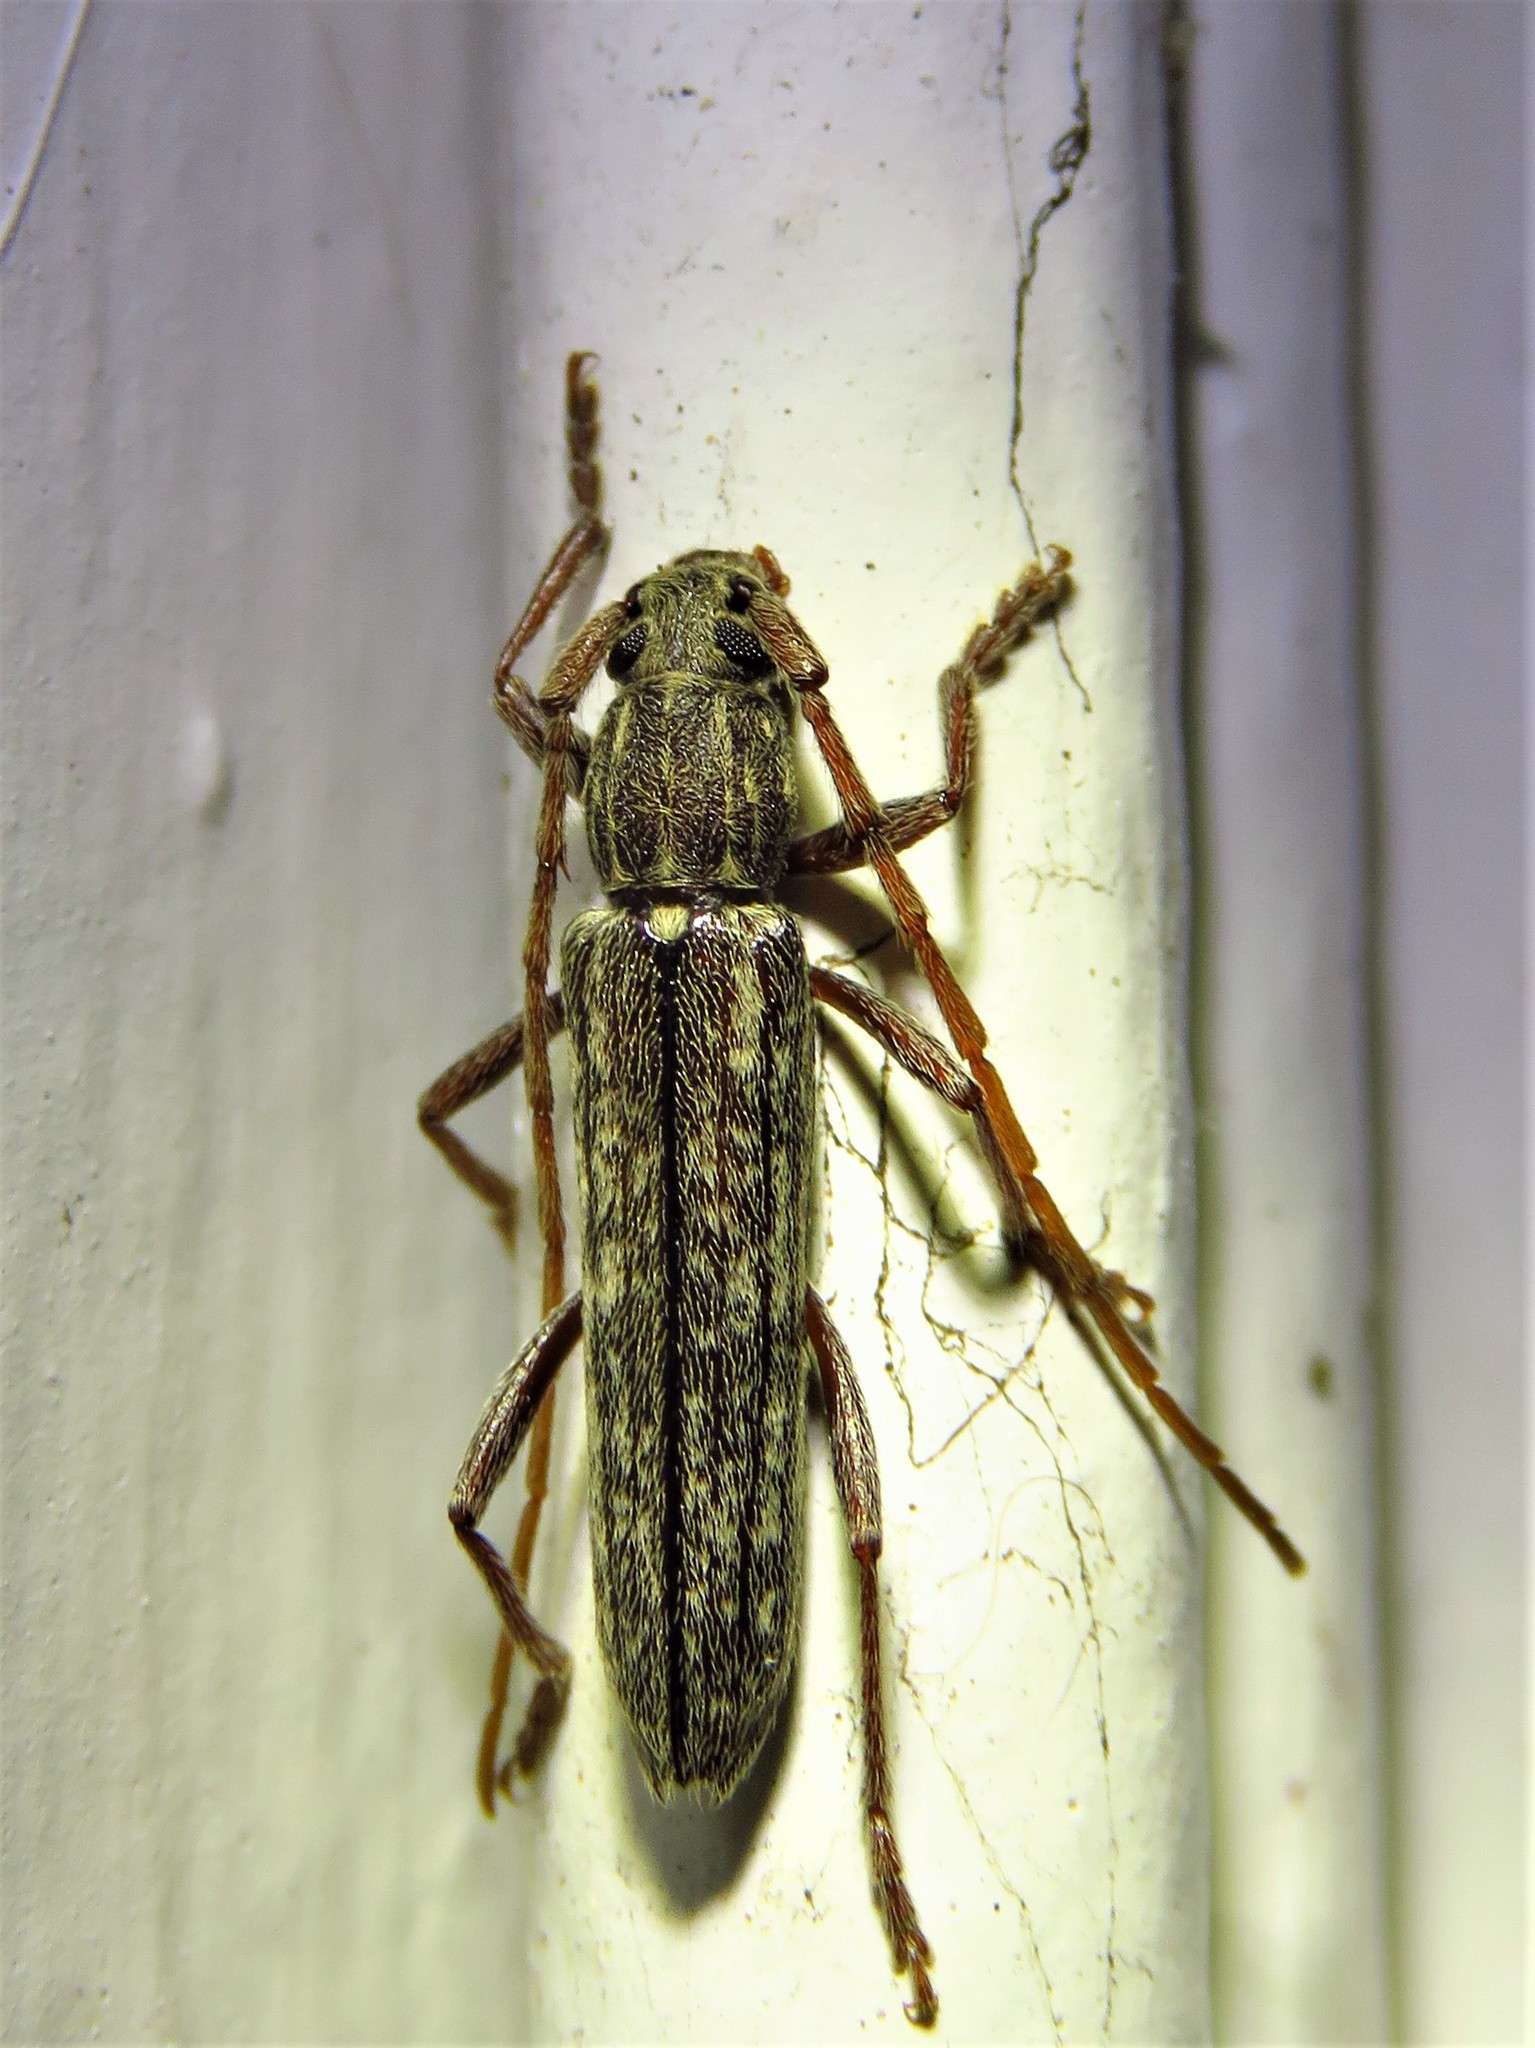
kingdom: Animalia
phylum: Arthropoda
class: Insecta
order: Coleoptera
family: Cerambycidae
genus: Anelaphus
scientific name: Anelaphus villosus
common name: Twig pruner
